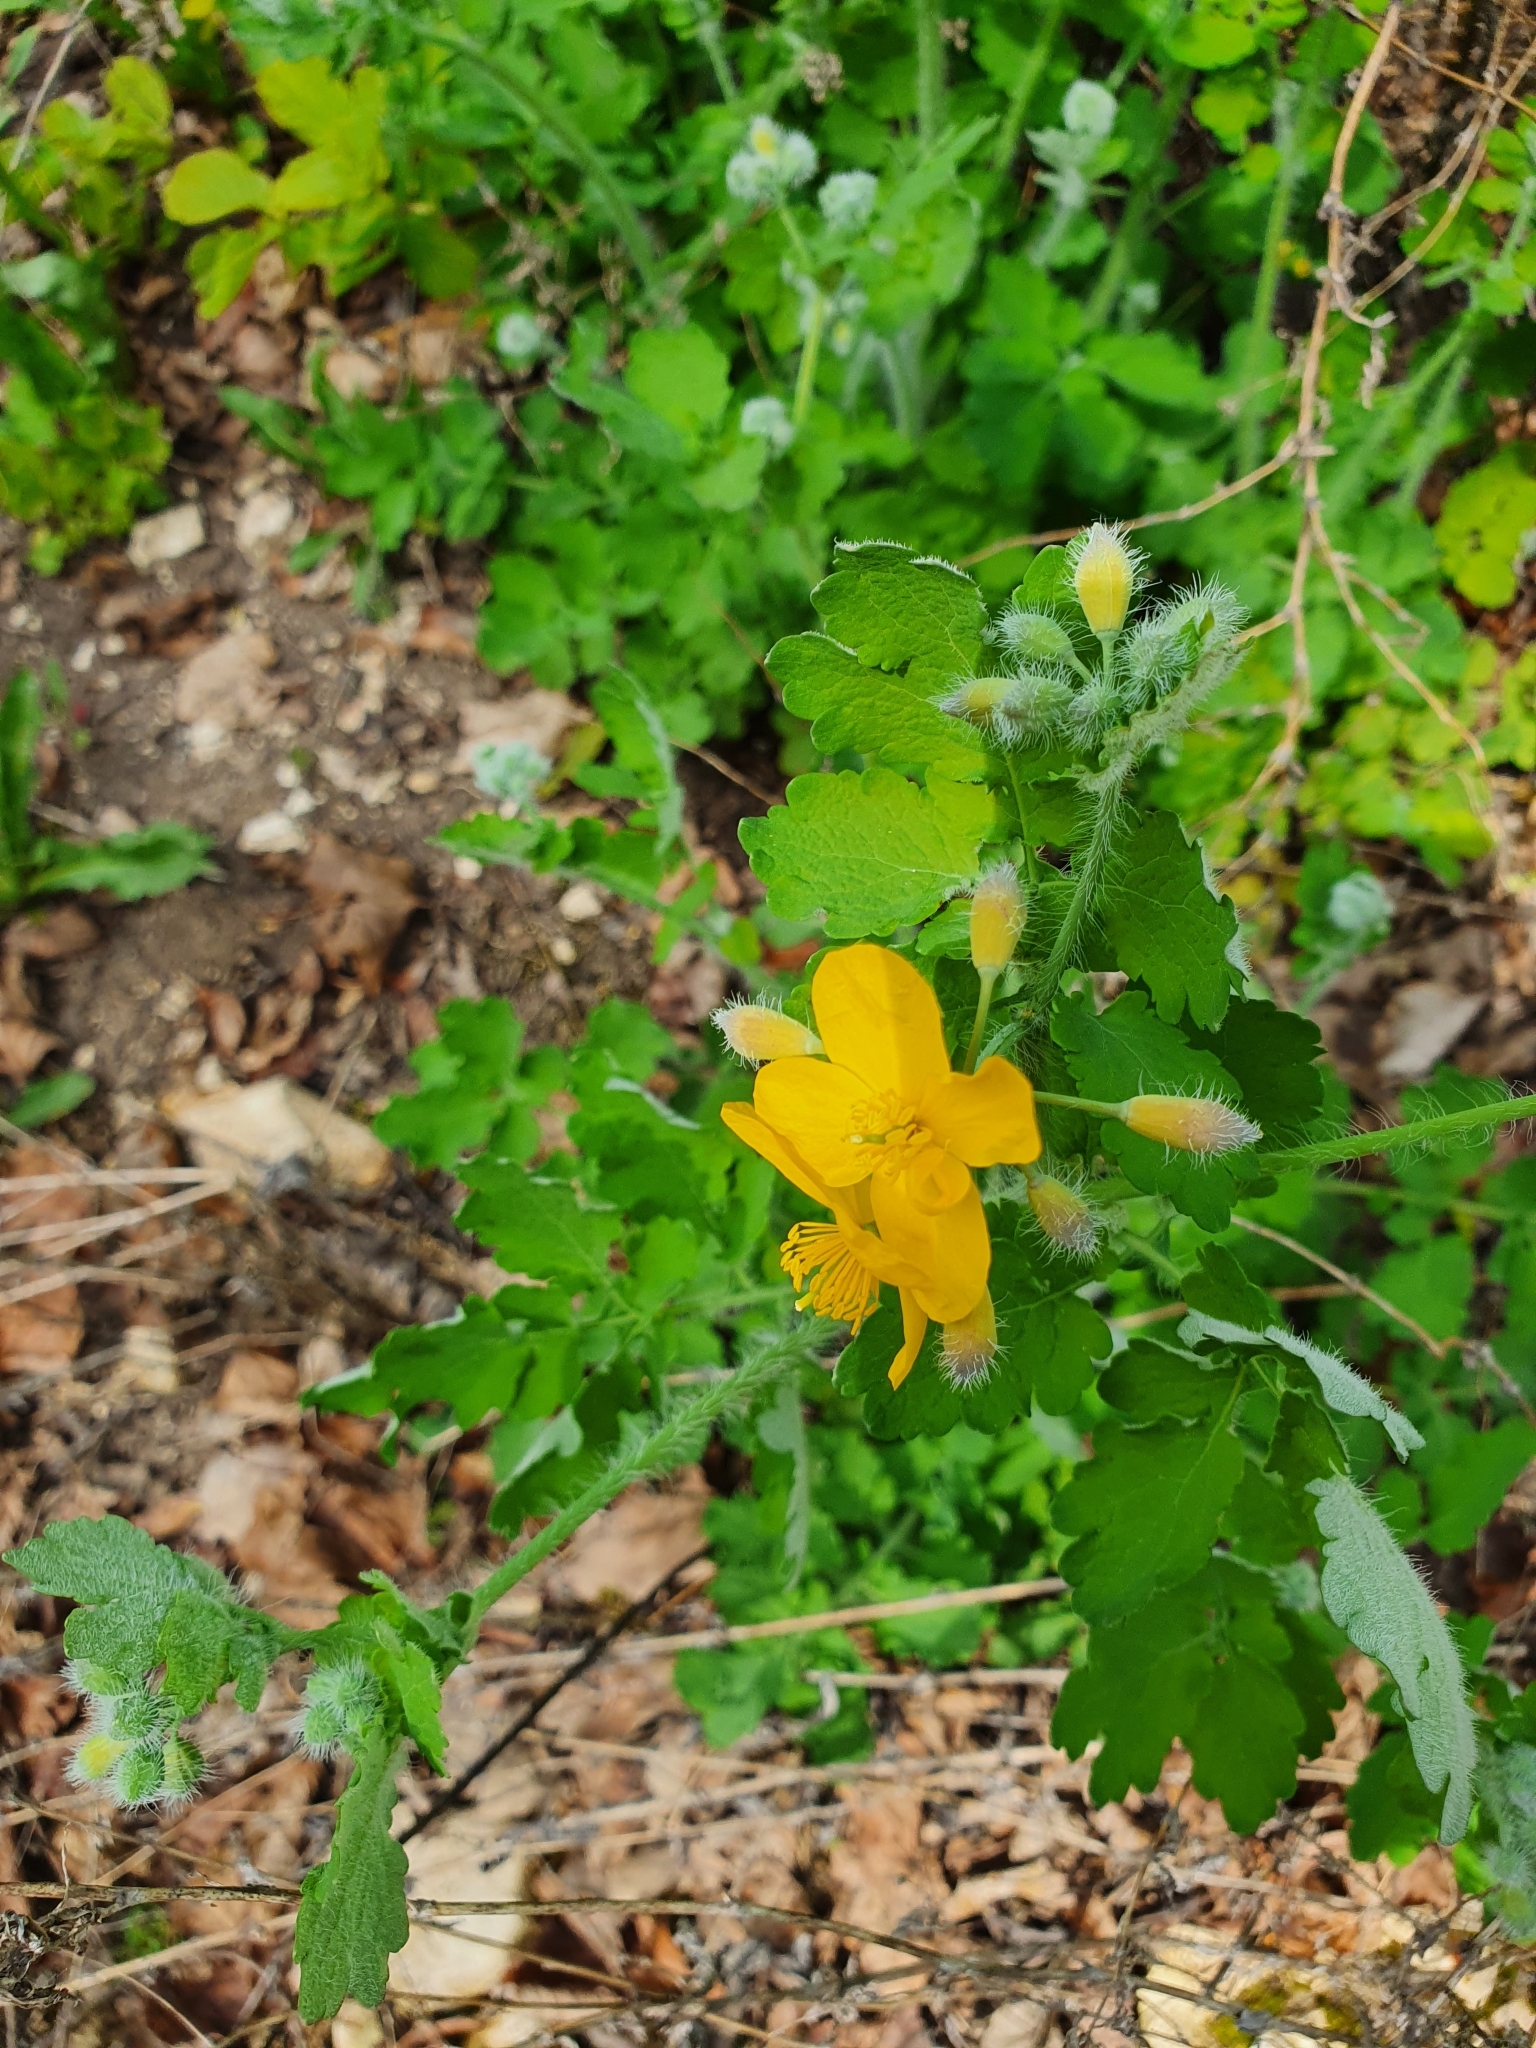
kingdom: Plantae
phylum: Tracheophyta
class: Magnoliopsida
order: Ranunculales
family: Papaveraceae
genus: Chelidonium
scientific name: Chelidonium majus
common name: Greater celandine
